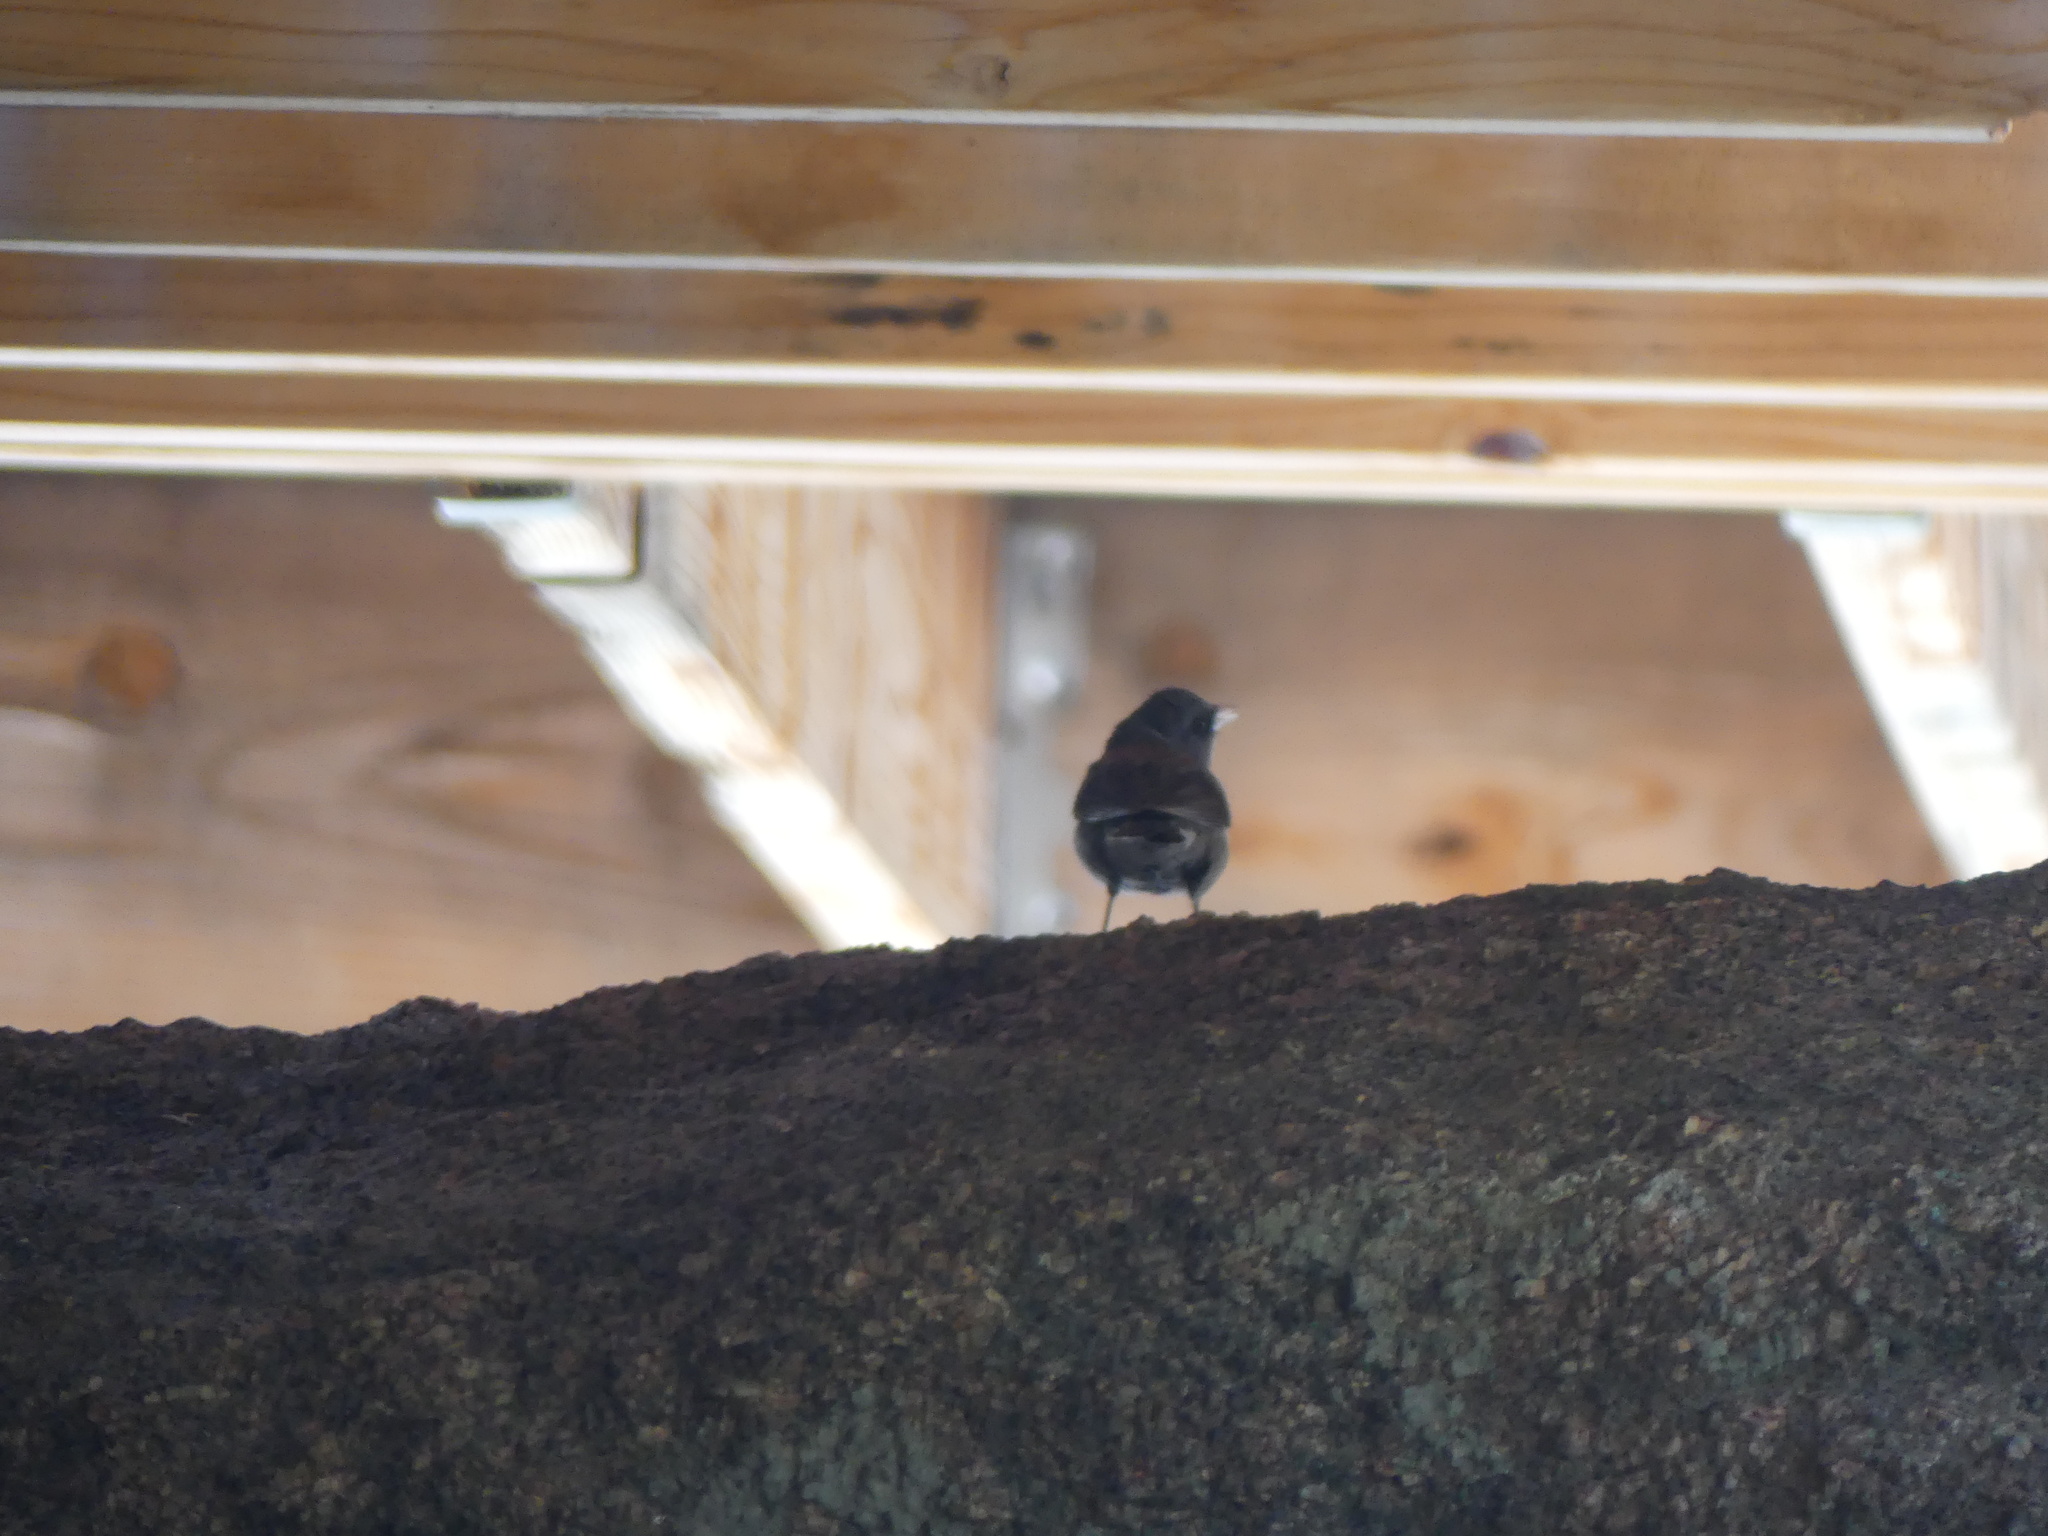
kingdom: Animalia
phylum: Chordata
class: Aves
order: Passeriformes
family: Passerellidae
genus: Junco
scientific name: Junco hyemalis
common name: Dark-eyed junco
